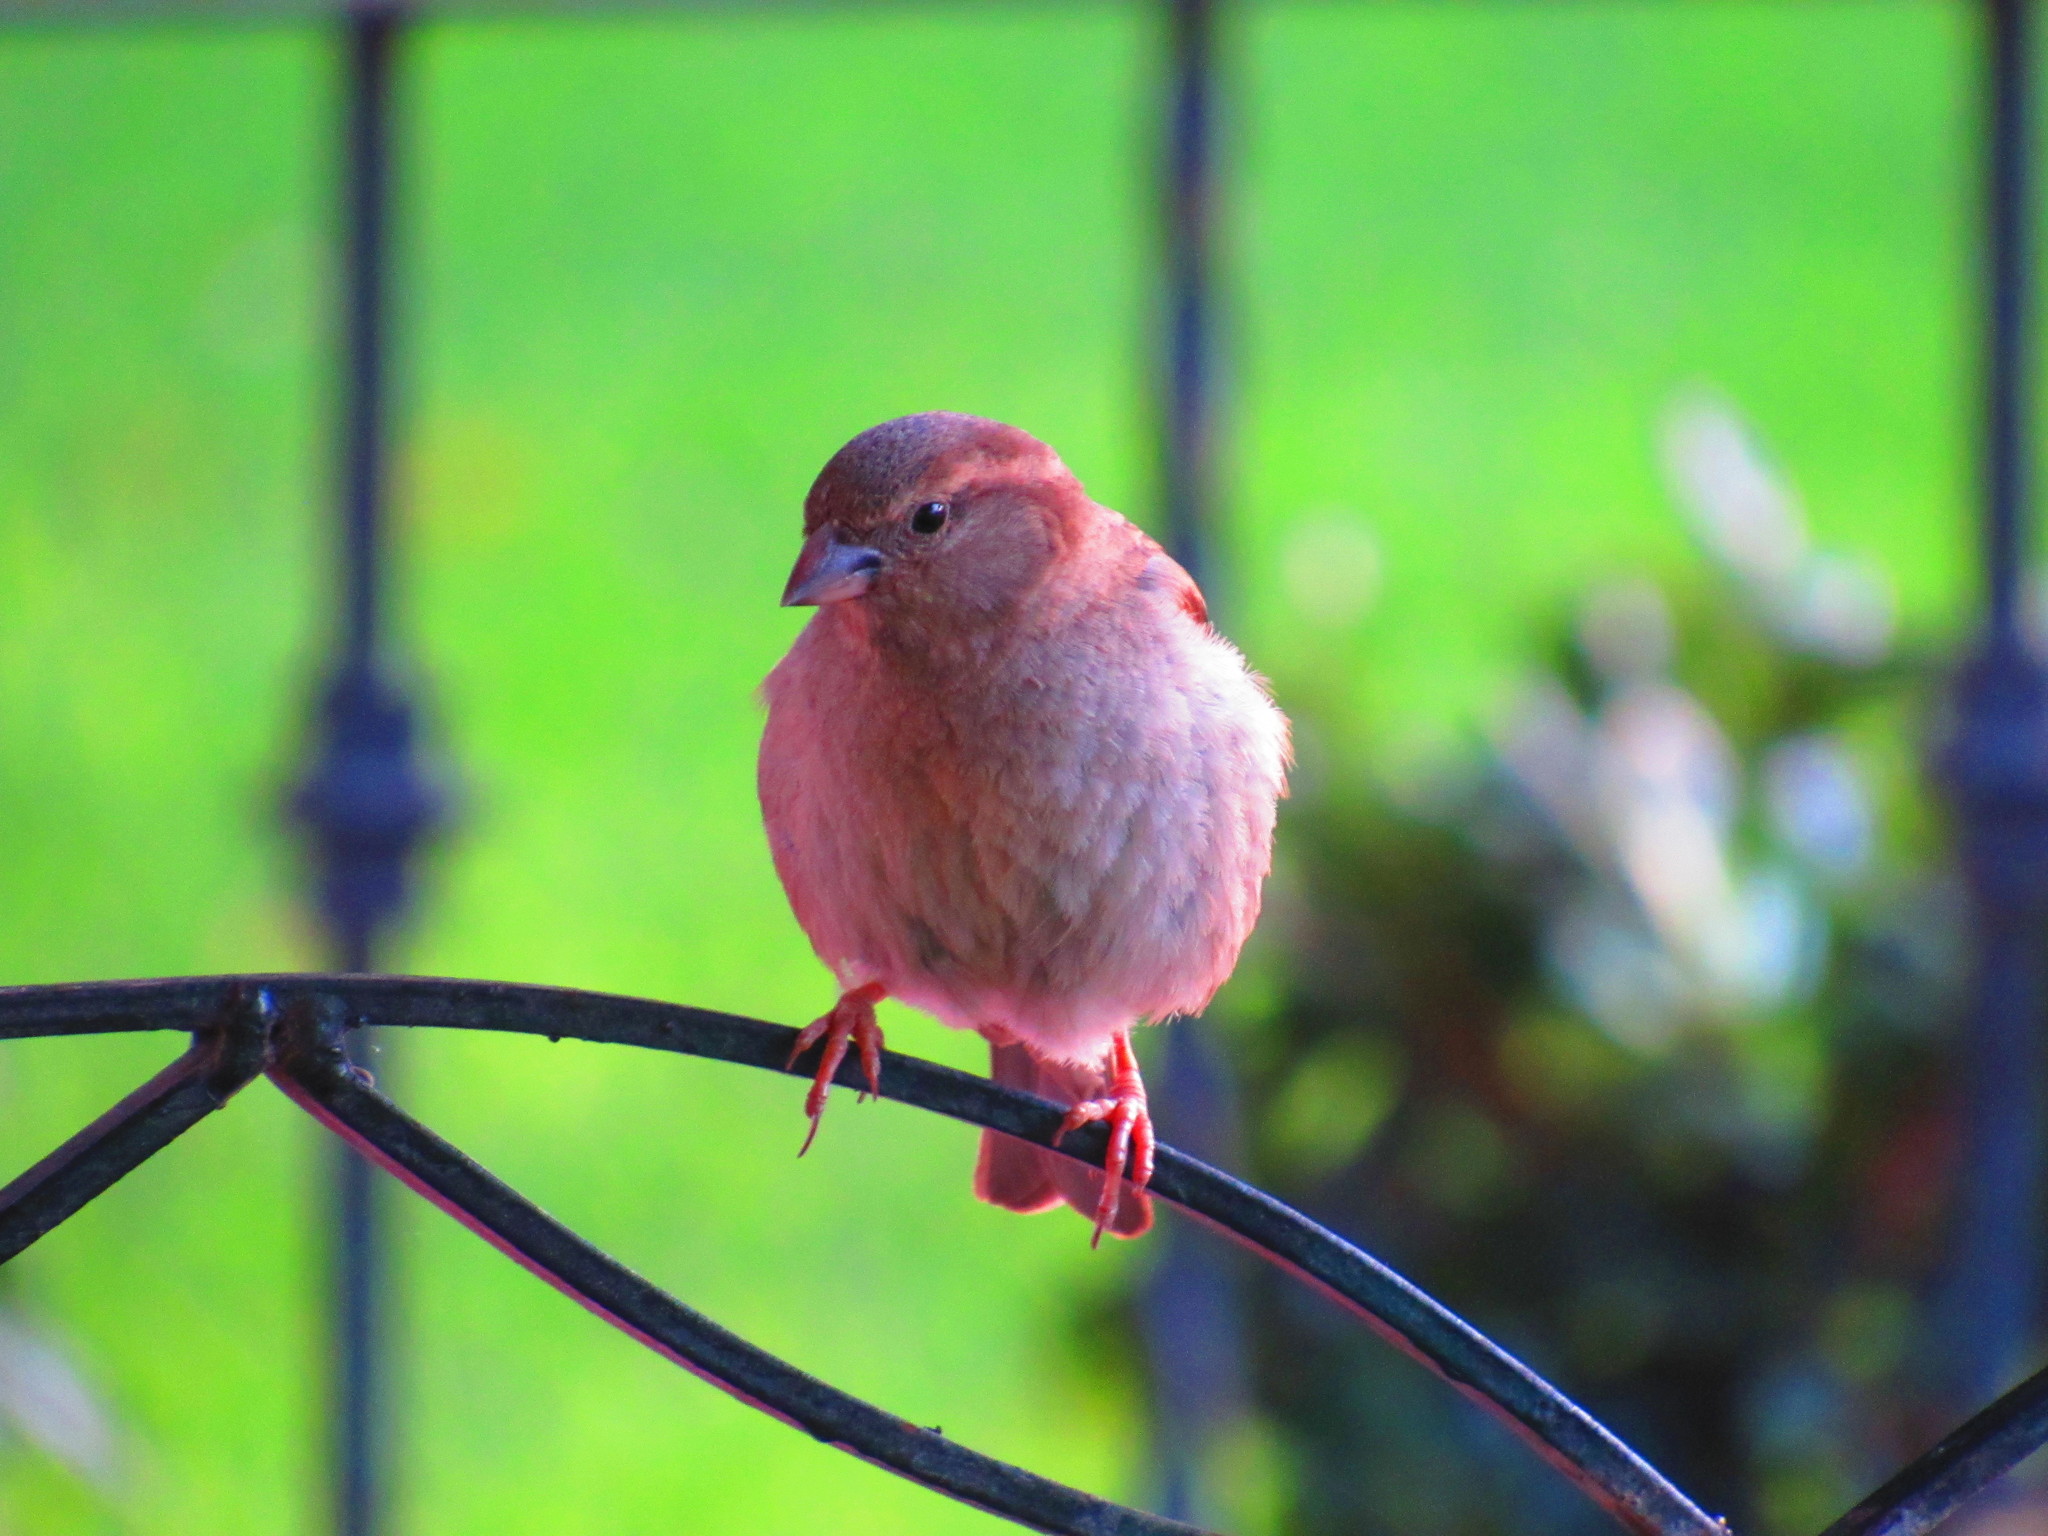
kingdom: Animalia
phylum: Chordata
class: Aves
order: Passeriformes
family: Passeridae
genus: Passer
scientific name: Passer domesticus
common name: House sparrow
